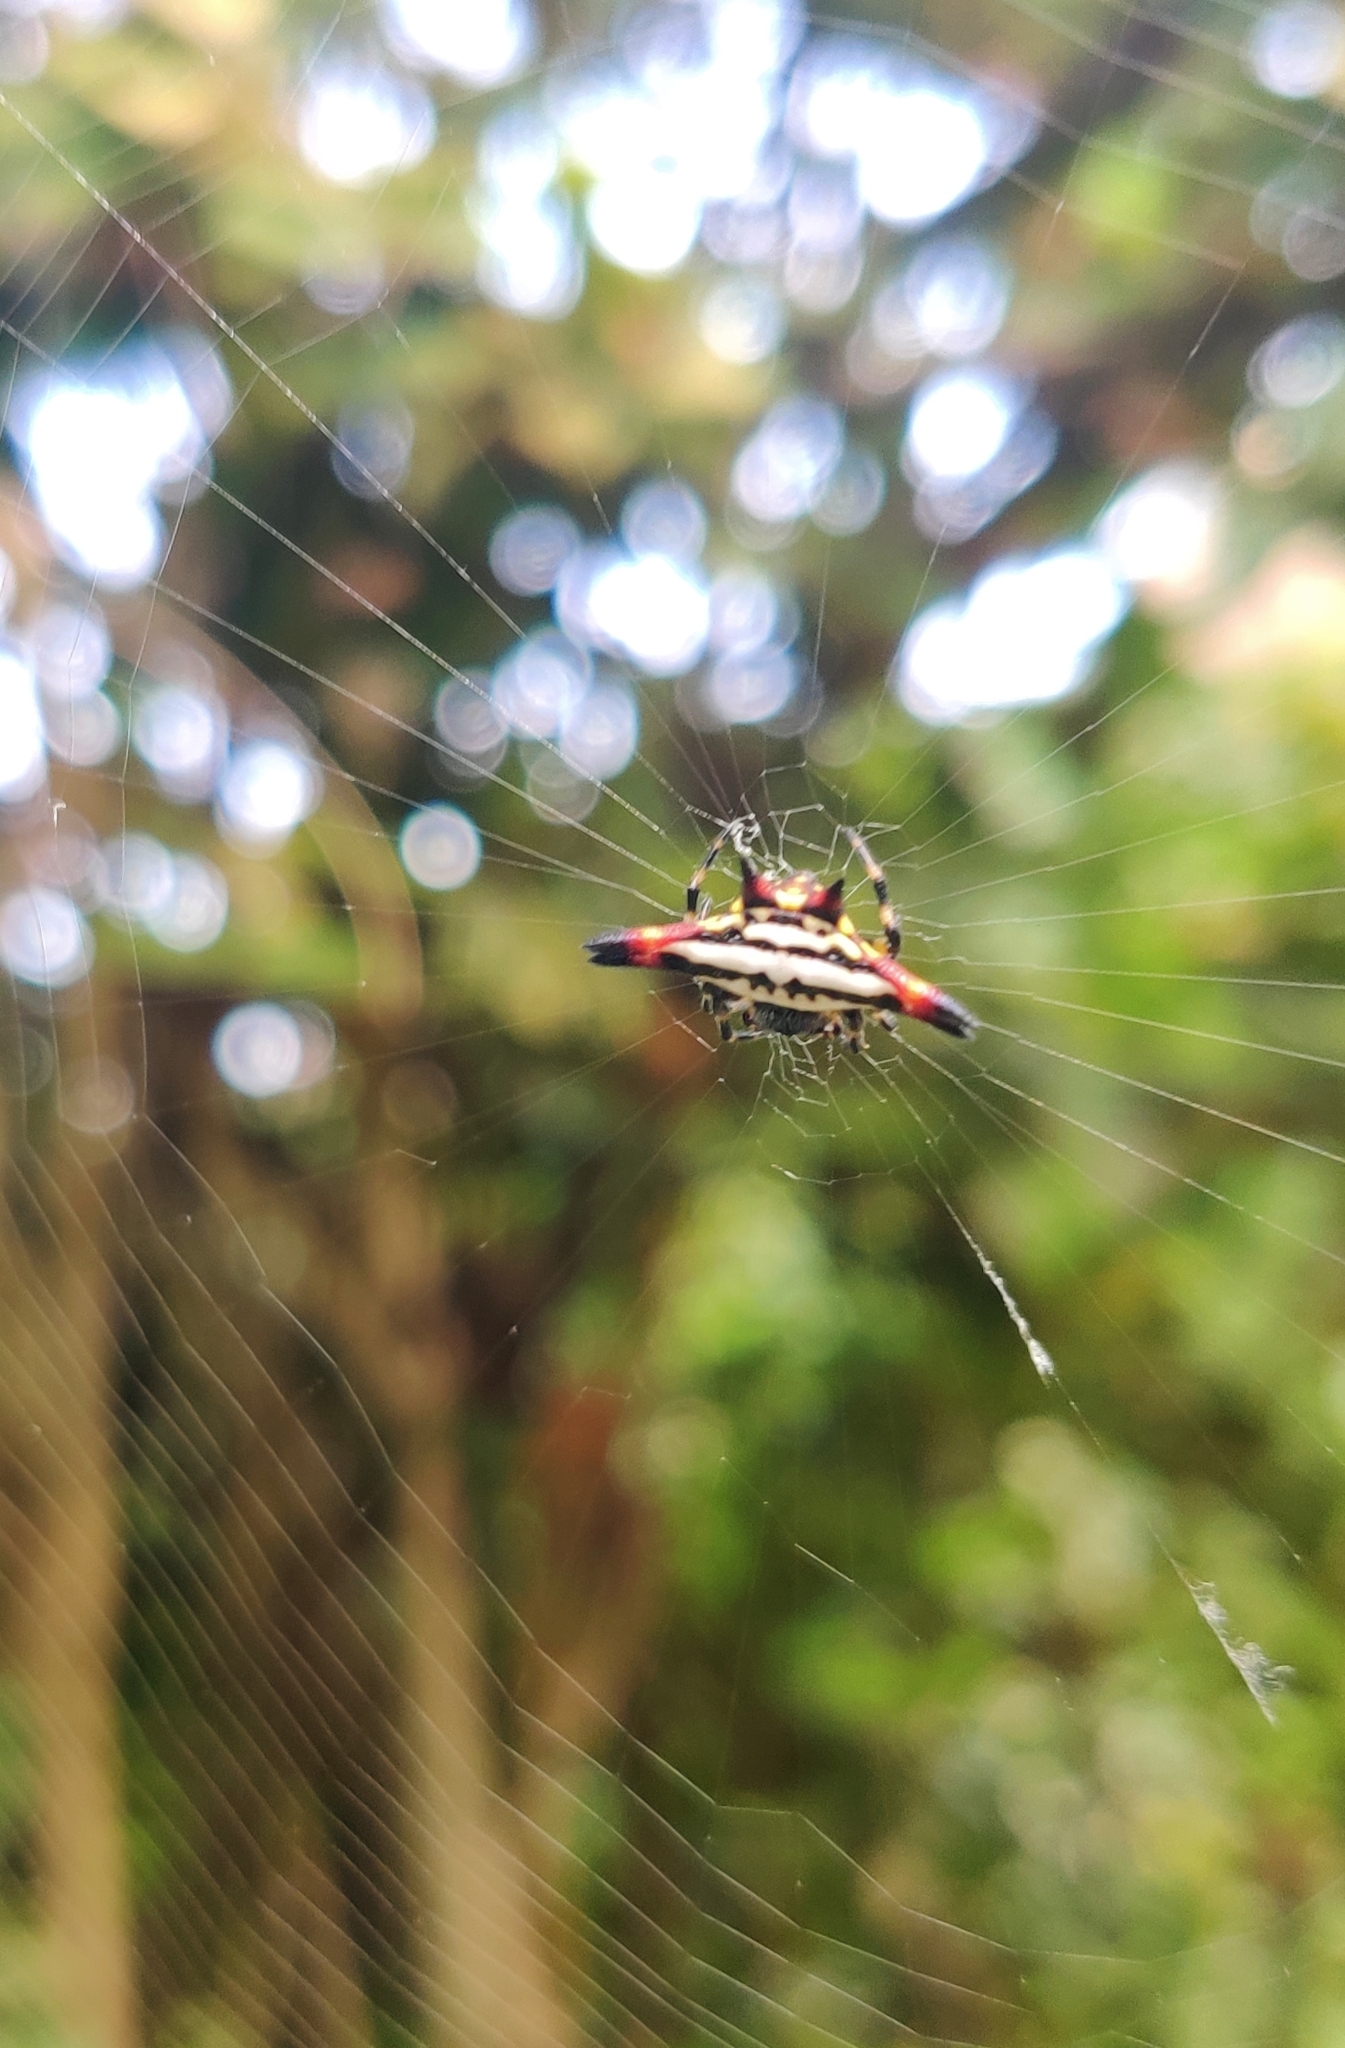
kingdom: Animalia
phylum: Arthropoda
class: Arachnida
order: Araneae
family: Araneidae
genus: Gasteracantha
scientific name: Gasteracantha geminata
